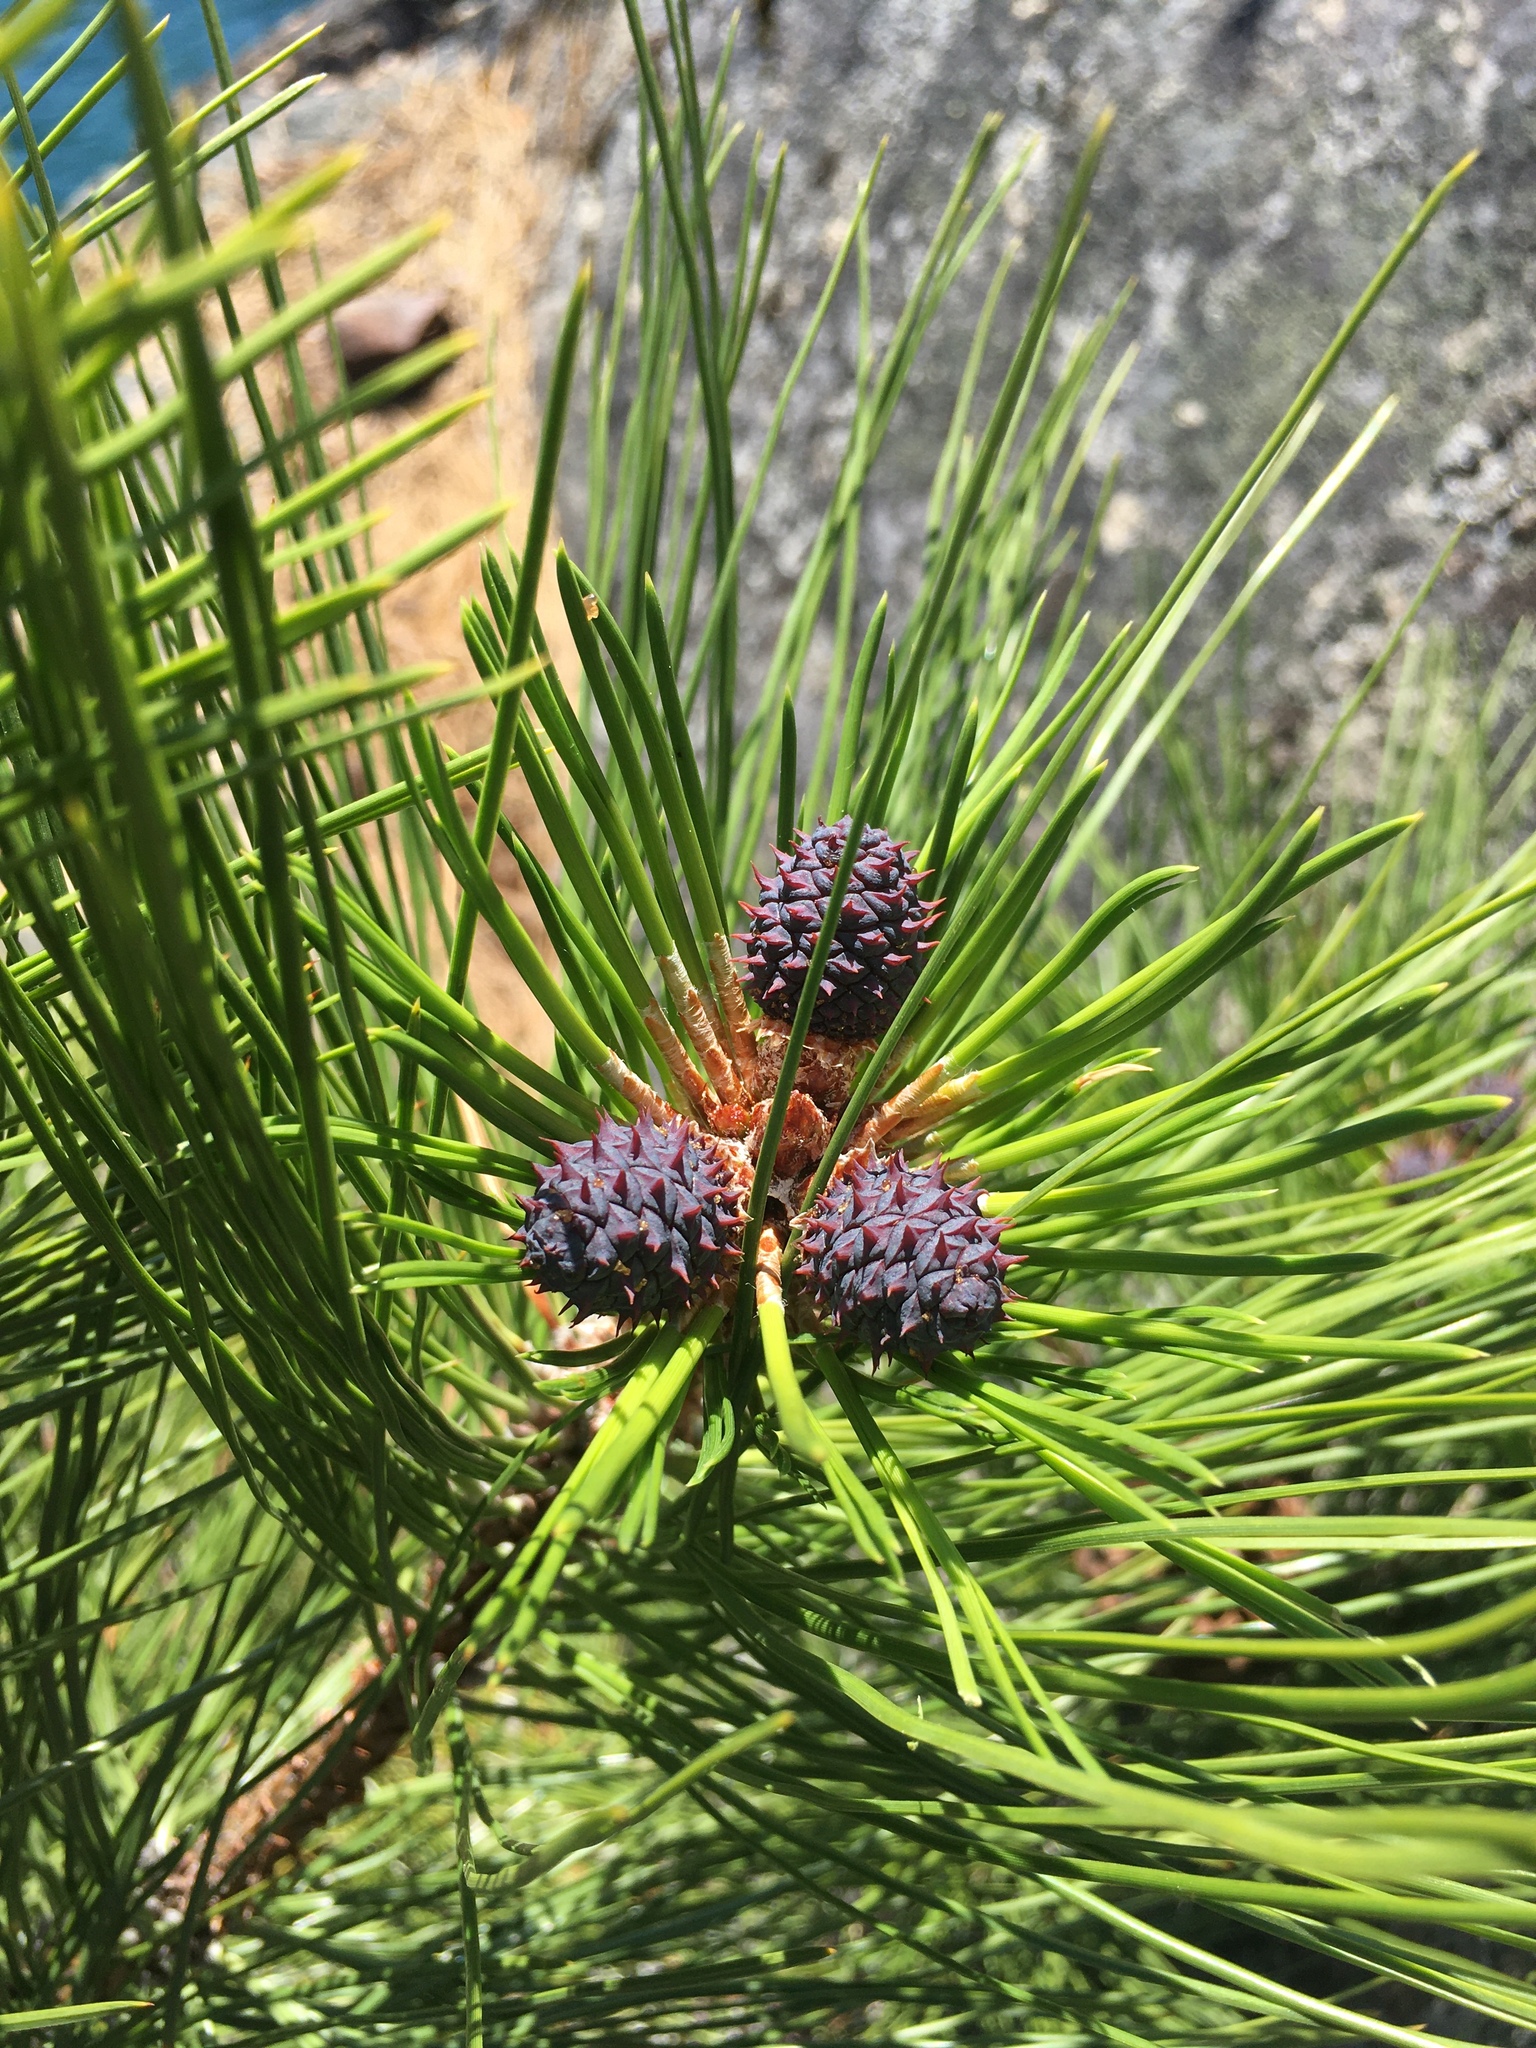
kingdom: Plantae
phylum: Tracheophyta
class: Pinopsida
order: Pinales
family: Pinaceae
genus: Pinus
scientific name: Pinus ponderosa
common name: Western yellow-pine
